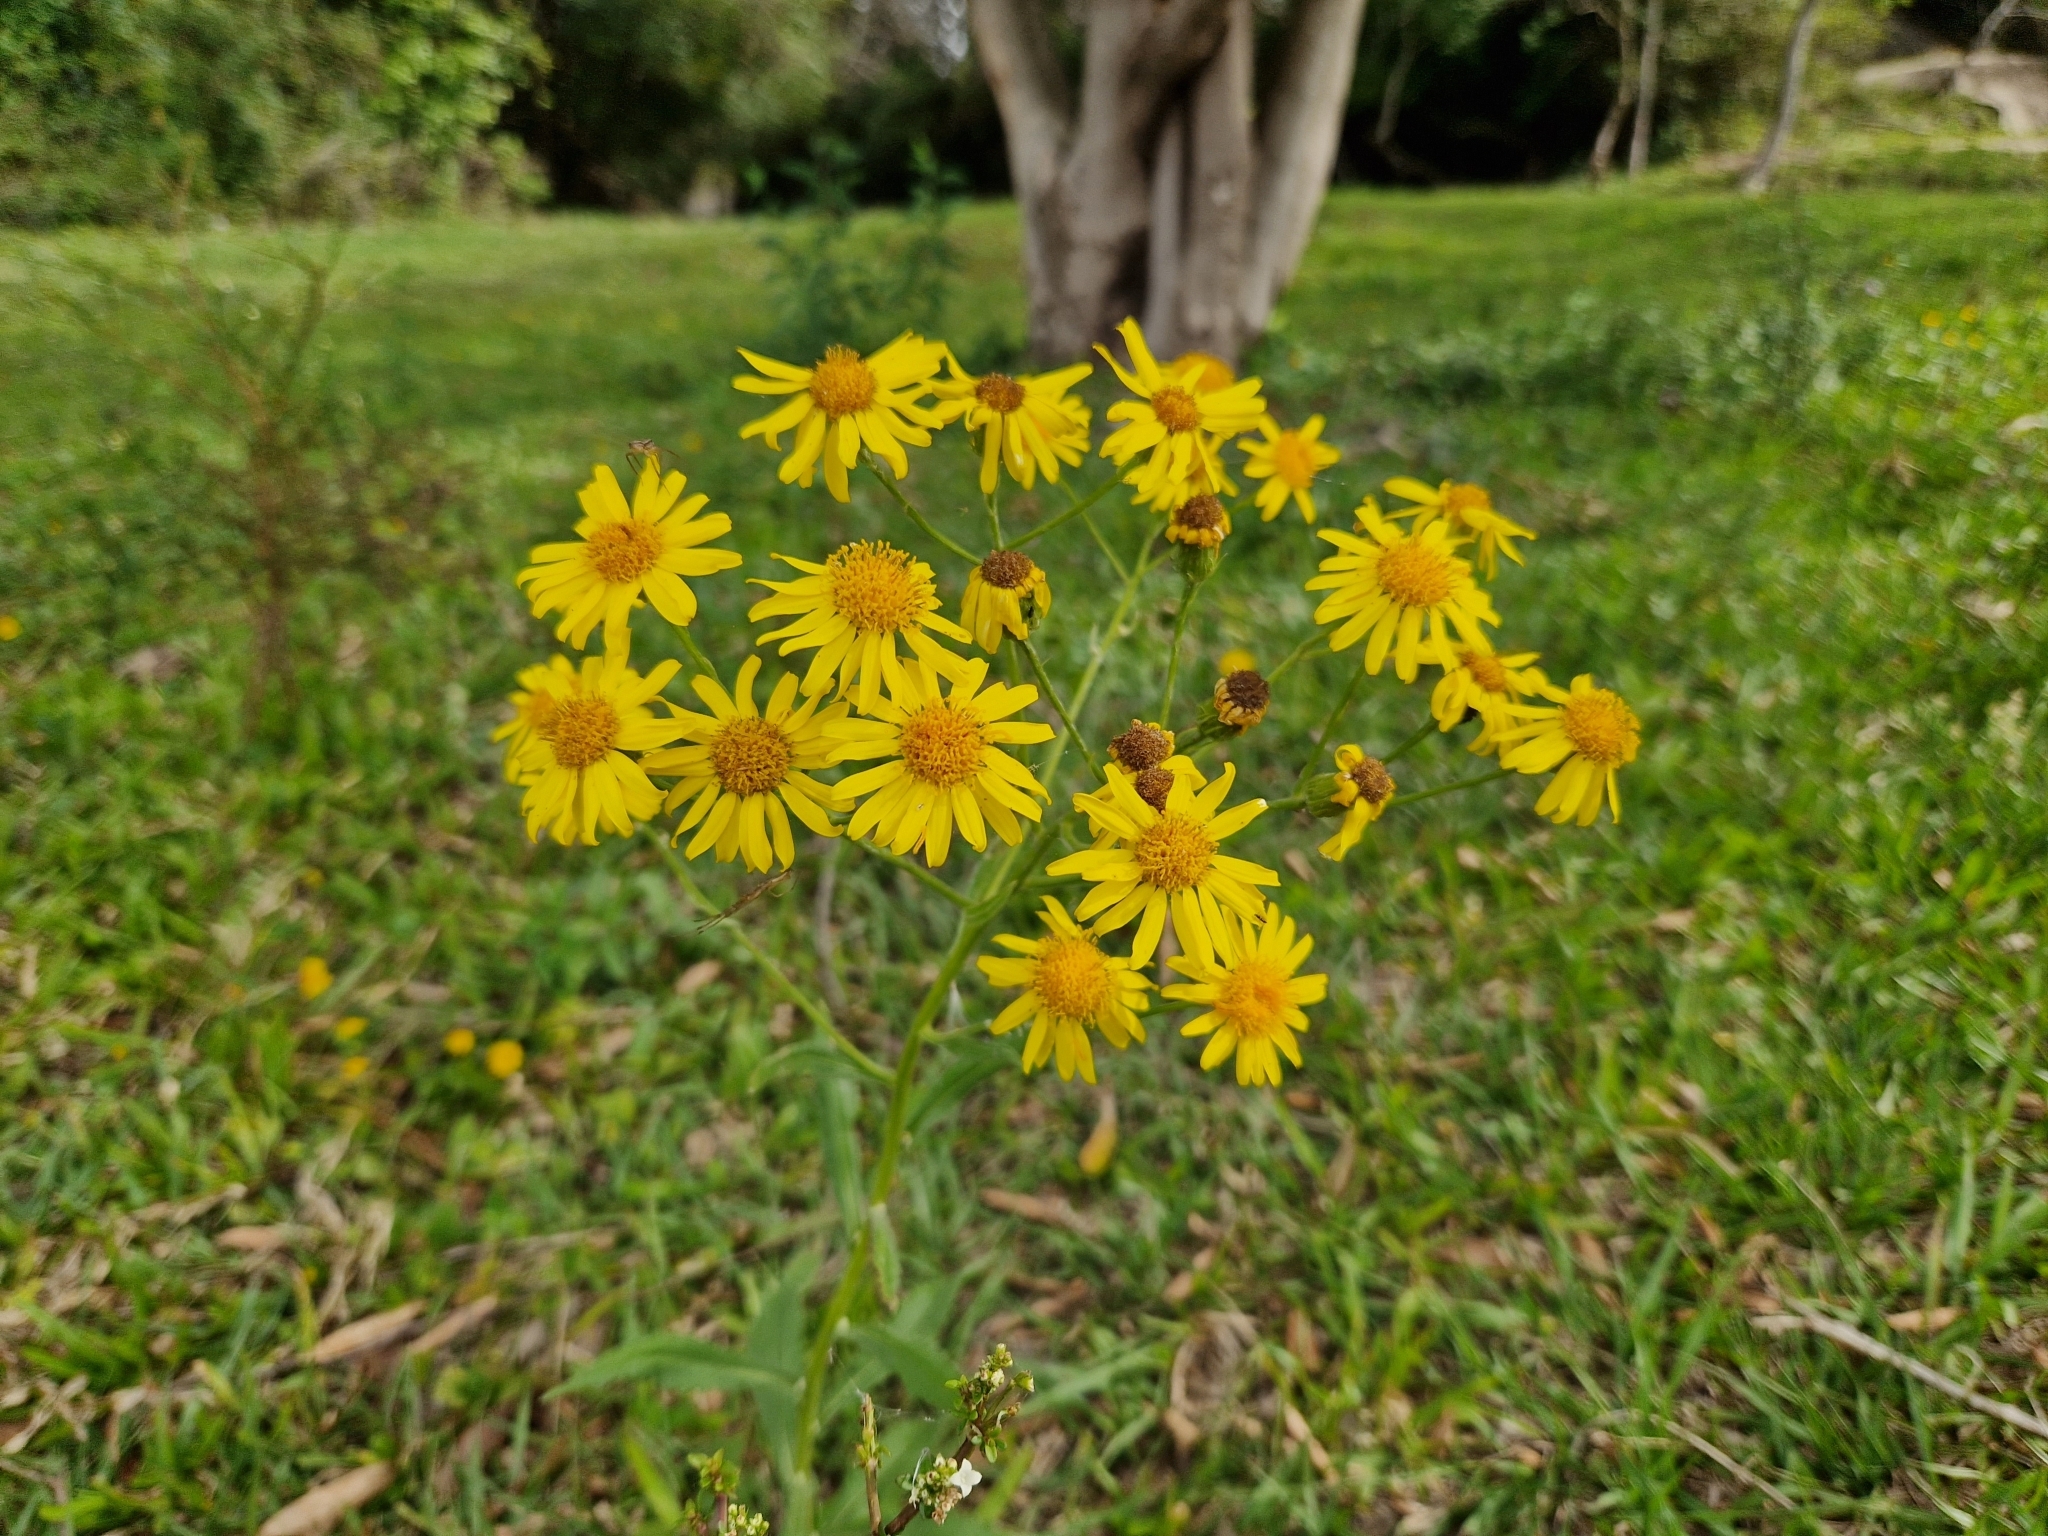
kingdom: Plantae
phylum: Tracheophyta
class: Magnoliopsida
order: Asterales
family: Asteraceae
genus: Senecio
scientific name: Senecio pterophorus
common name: Shoddy ragwort
